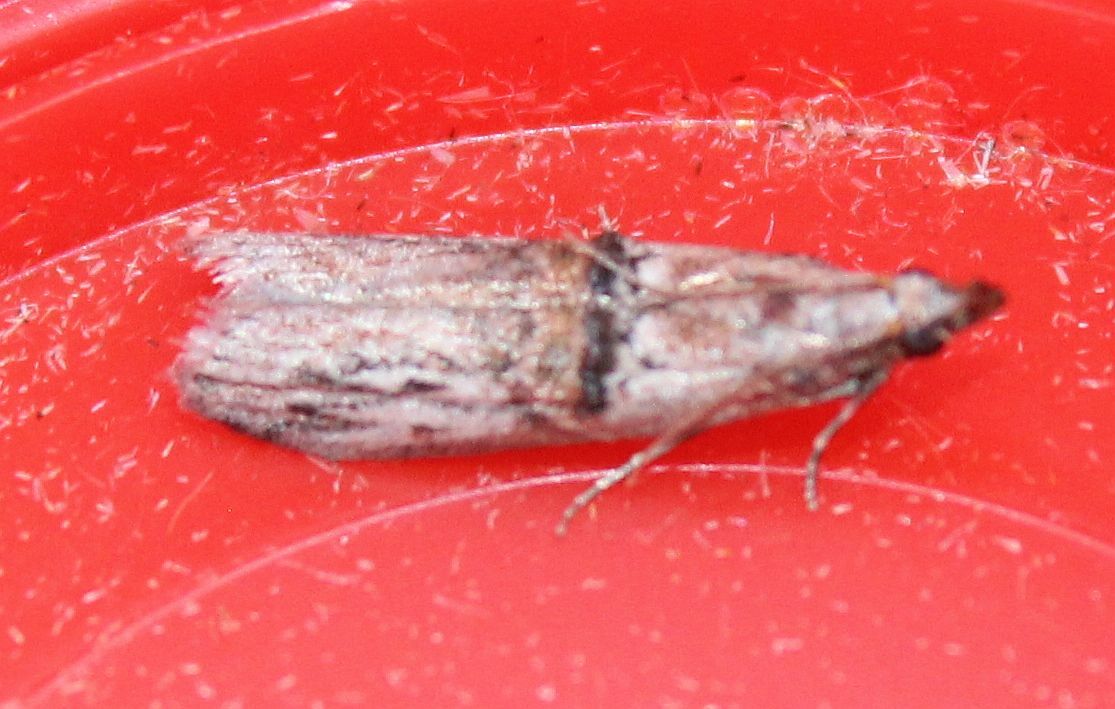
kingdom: Animalia
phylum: Arthropoda
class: Insecta
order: Lepidoptera
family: Pyralidae
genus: Nephopterix
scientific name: Nephopterix angustella
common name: Spindle knot-horn
